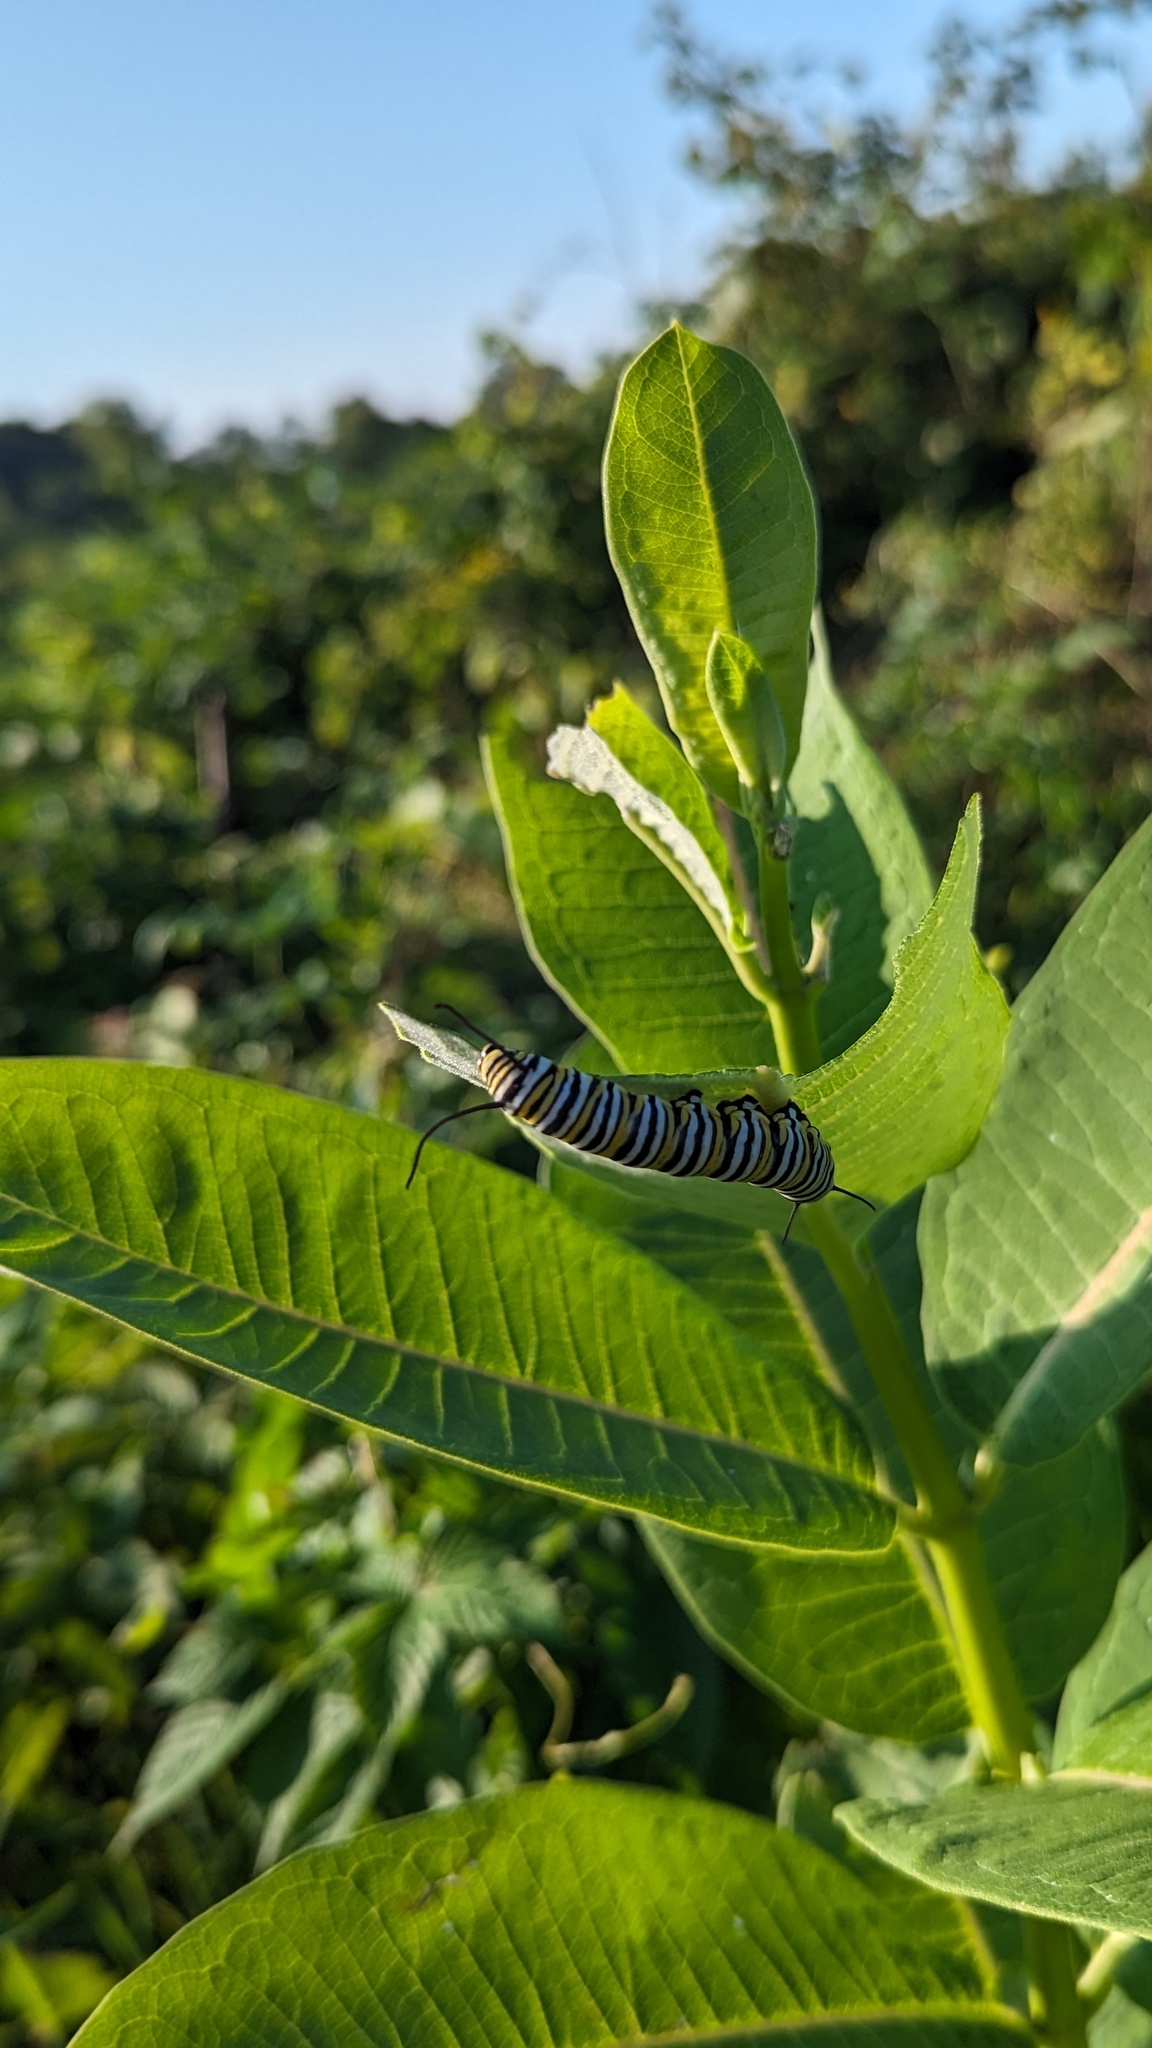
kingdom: Animalia
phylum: Arthropoda
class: Insecta
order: Lepidoptera
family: Nymphalidae
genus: Danaus
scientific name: Danaus plexippus
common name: Monarch
